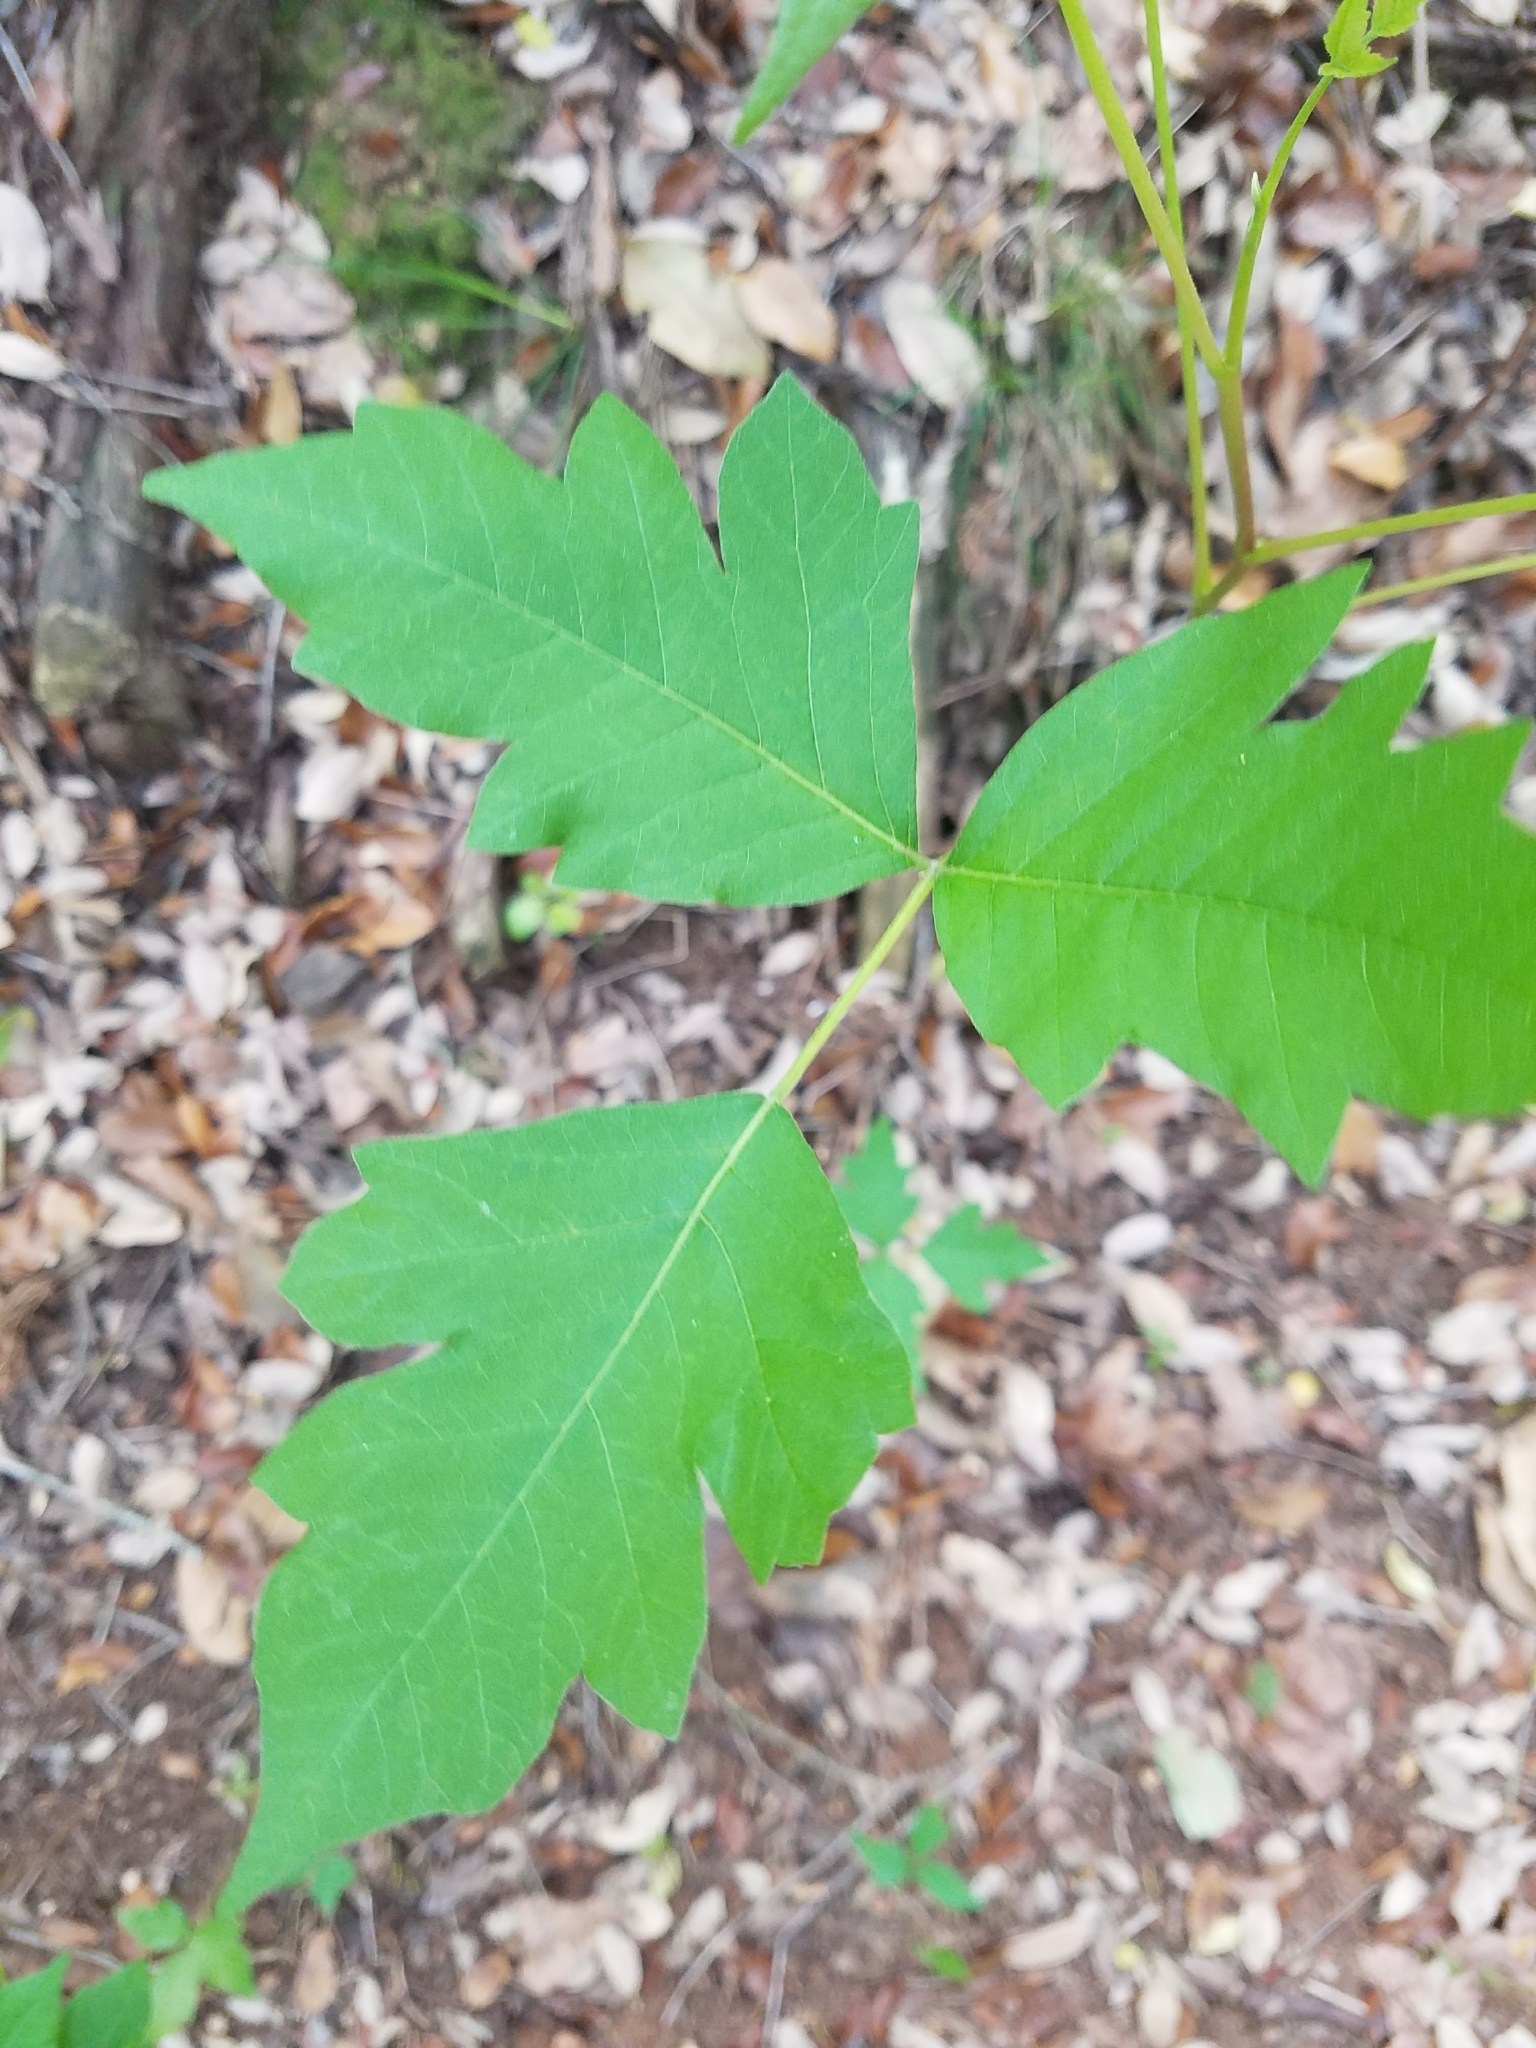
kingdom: Plantae
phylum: Tracheophyta
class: Magnoliopsida
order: Sapindales
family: Anacardiaceae
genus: Toxicodendron
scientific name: Toxicodendron radicans
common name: Poison ivy
